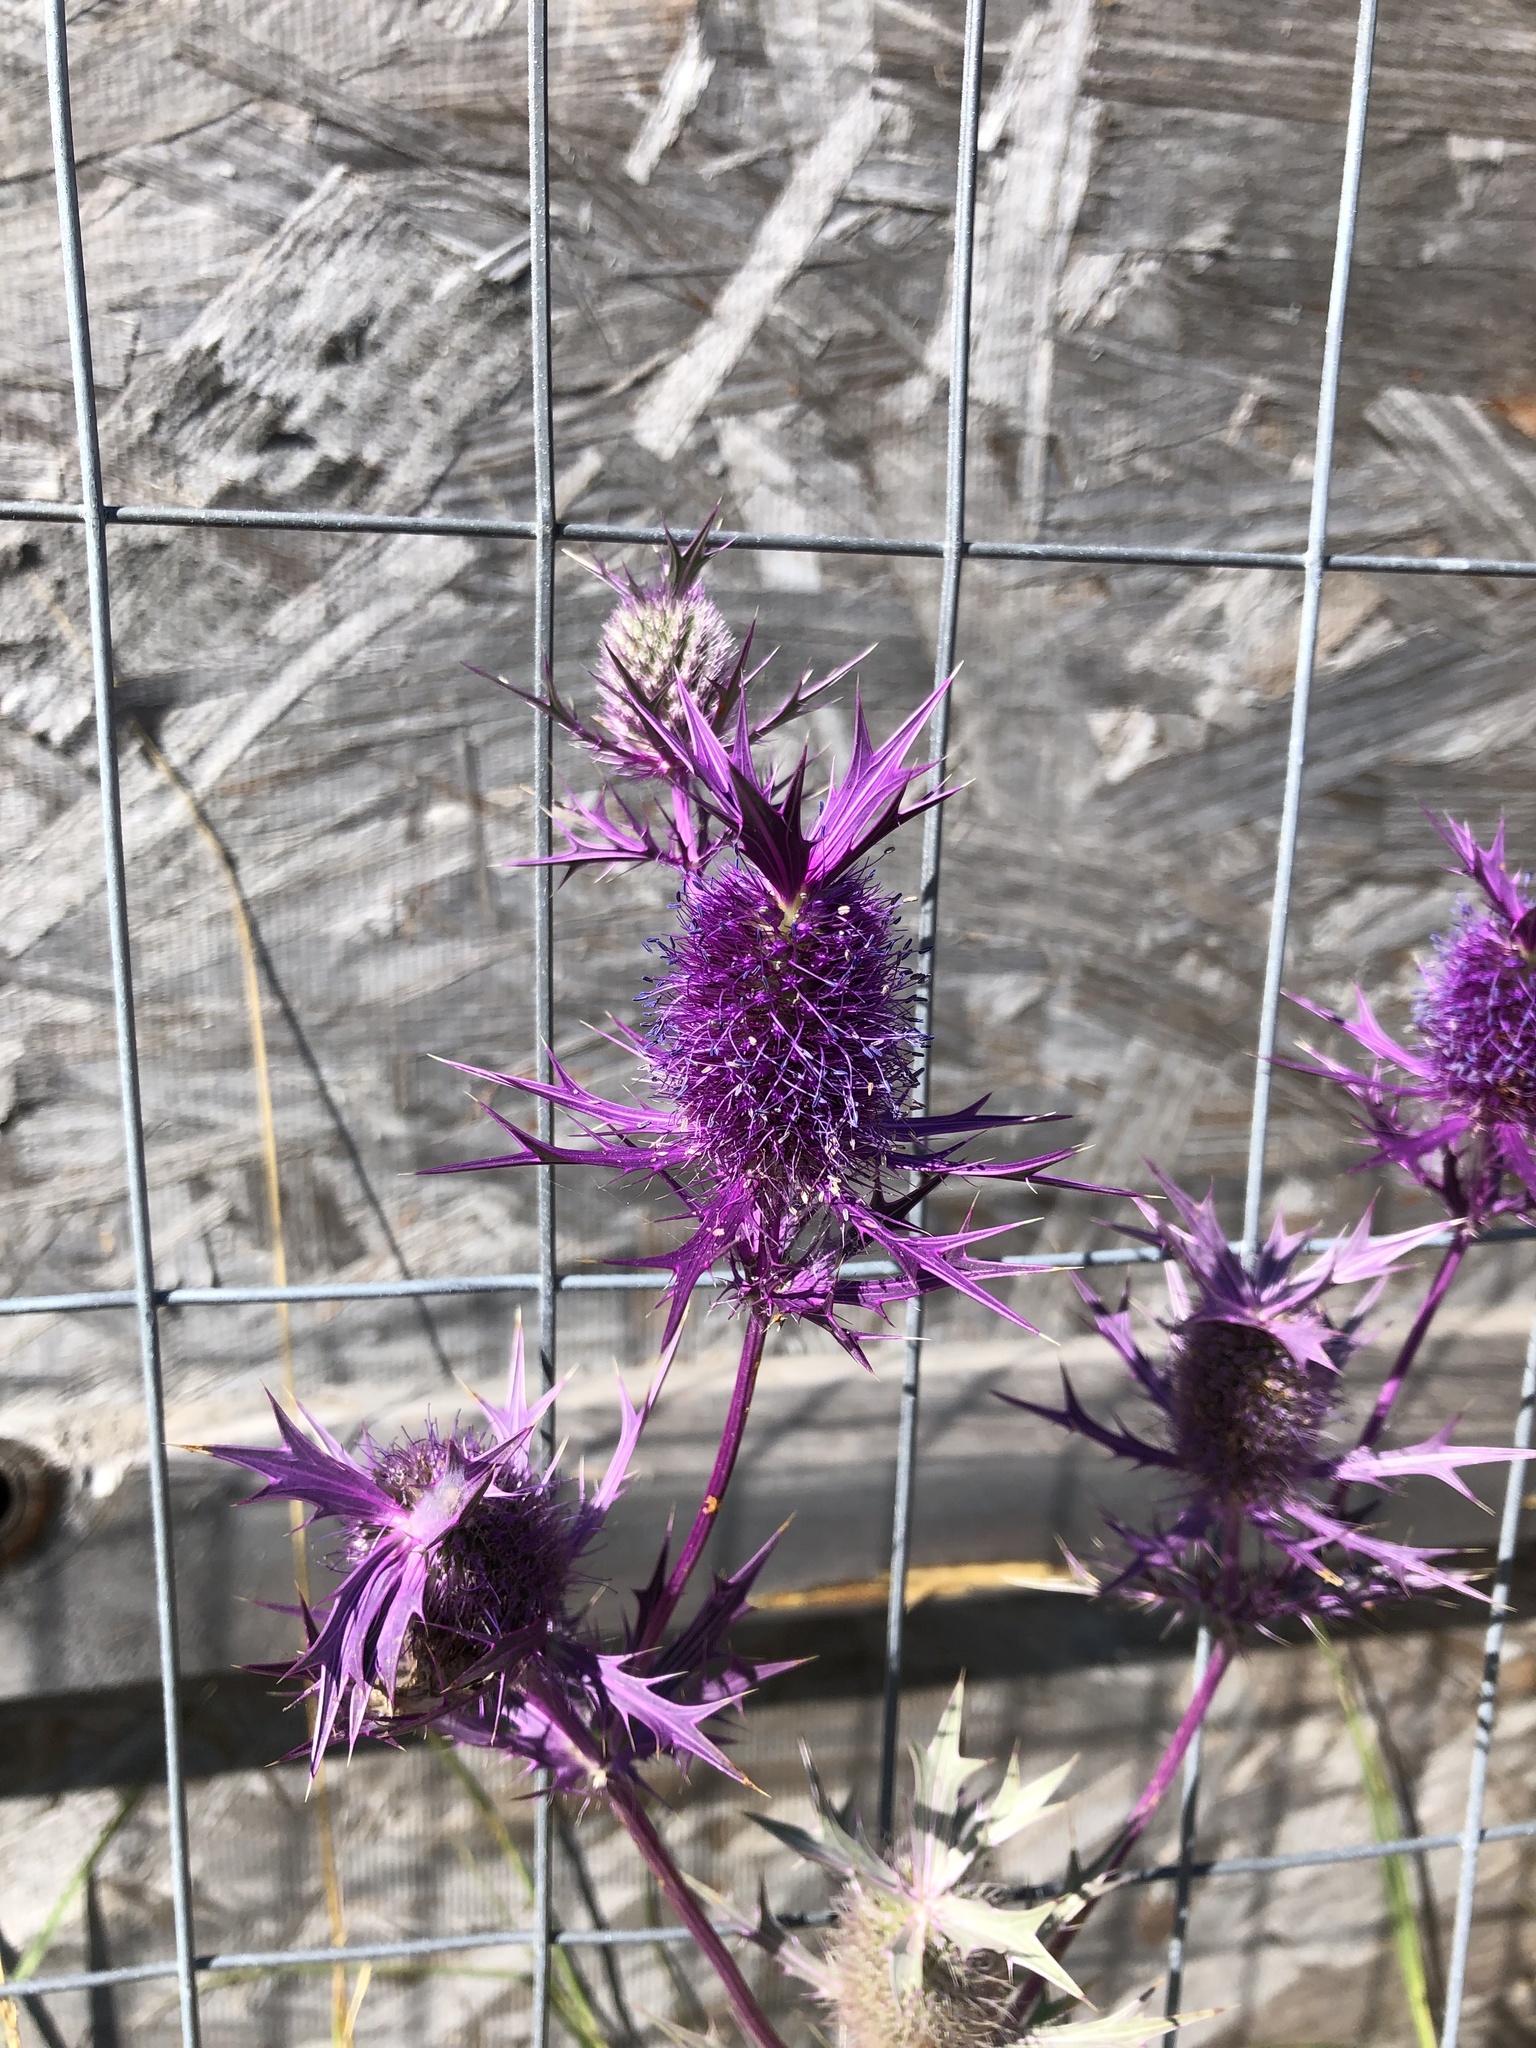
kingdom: Plantae
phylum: Tracheophyta
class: Magnoliopsida
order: Apiales
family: Apiaceae
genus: Eryngium
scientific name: Eryngium leavenworthii
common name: Leavenworth's eryngo
